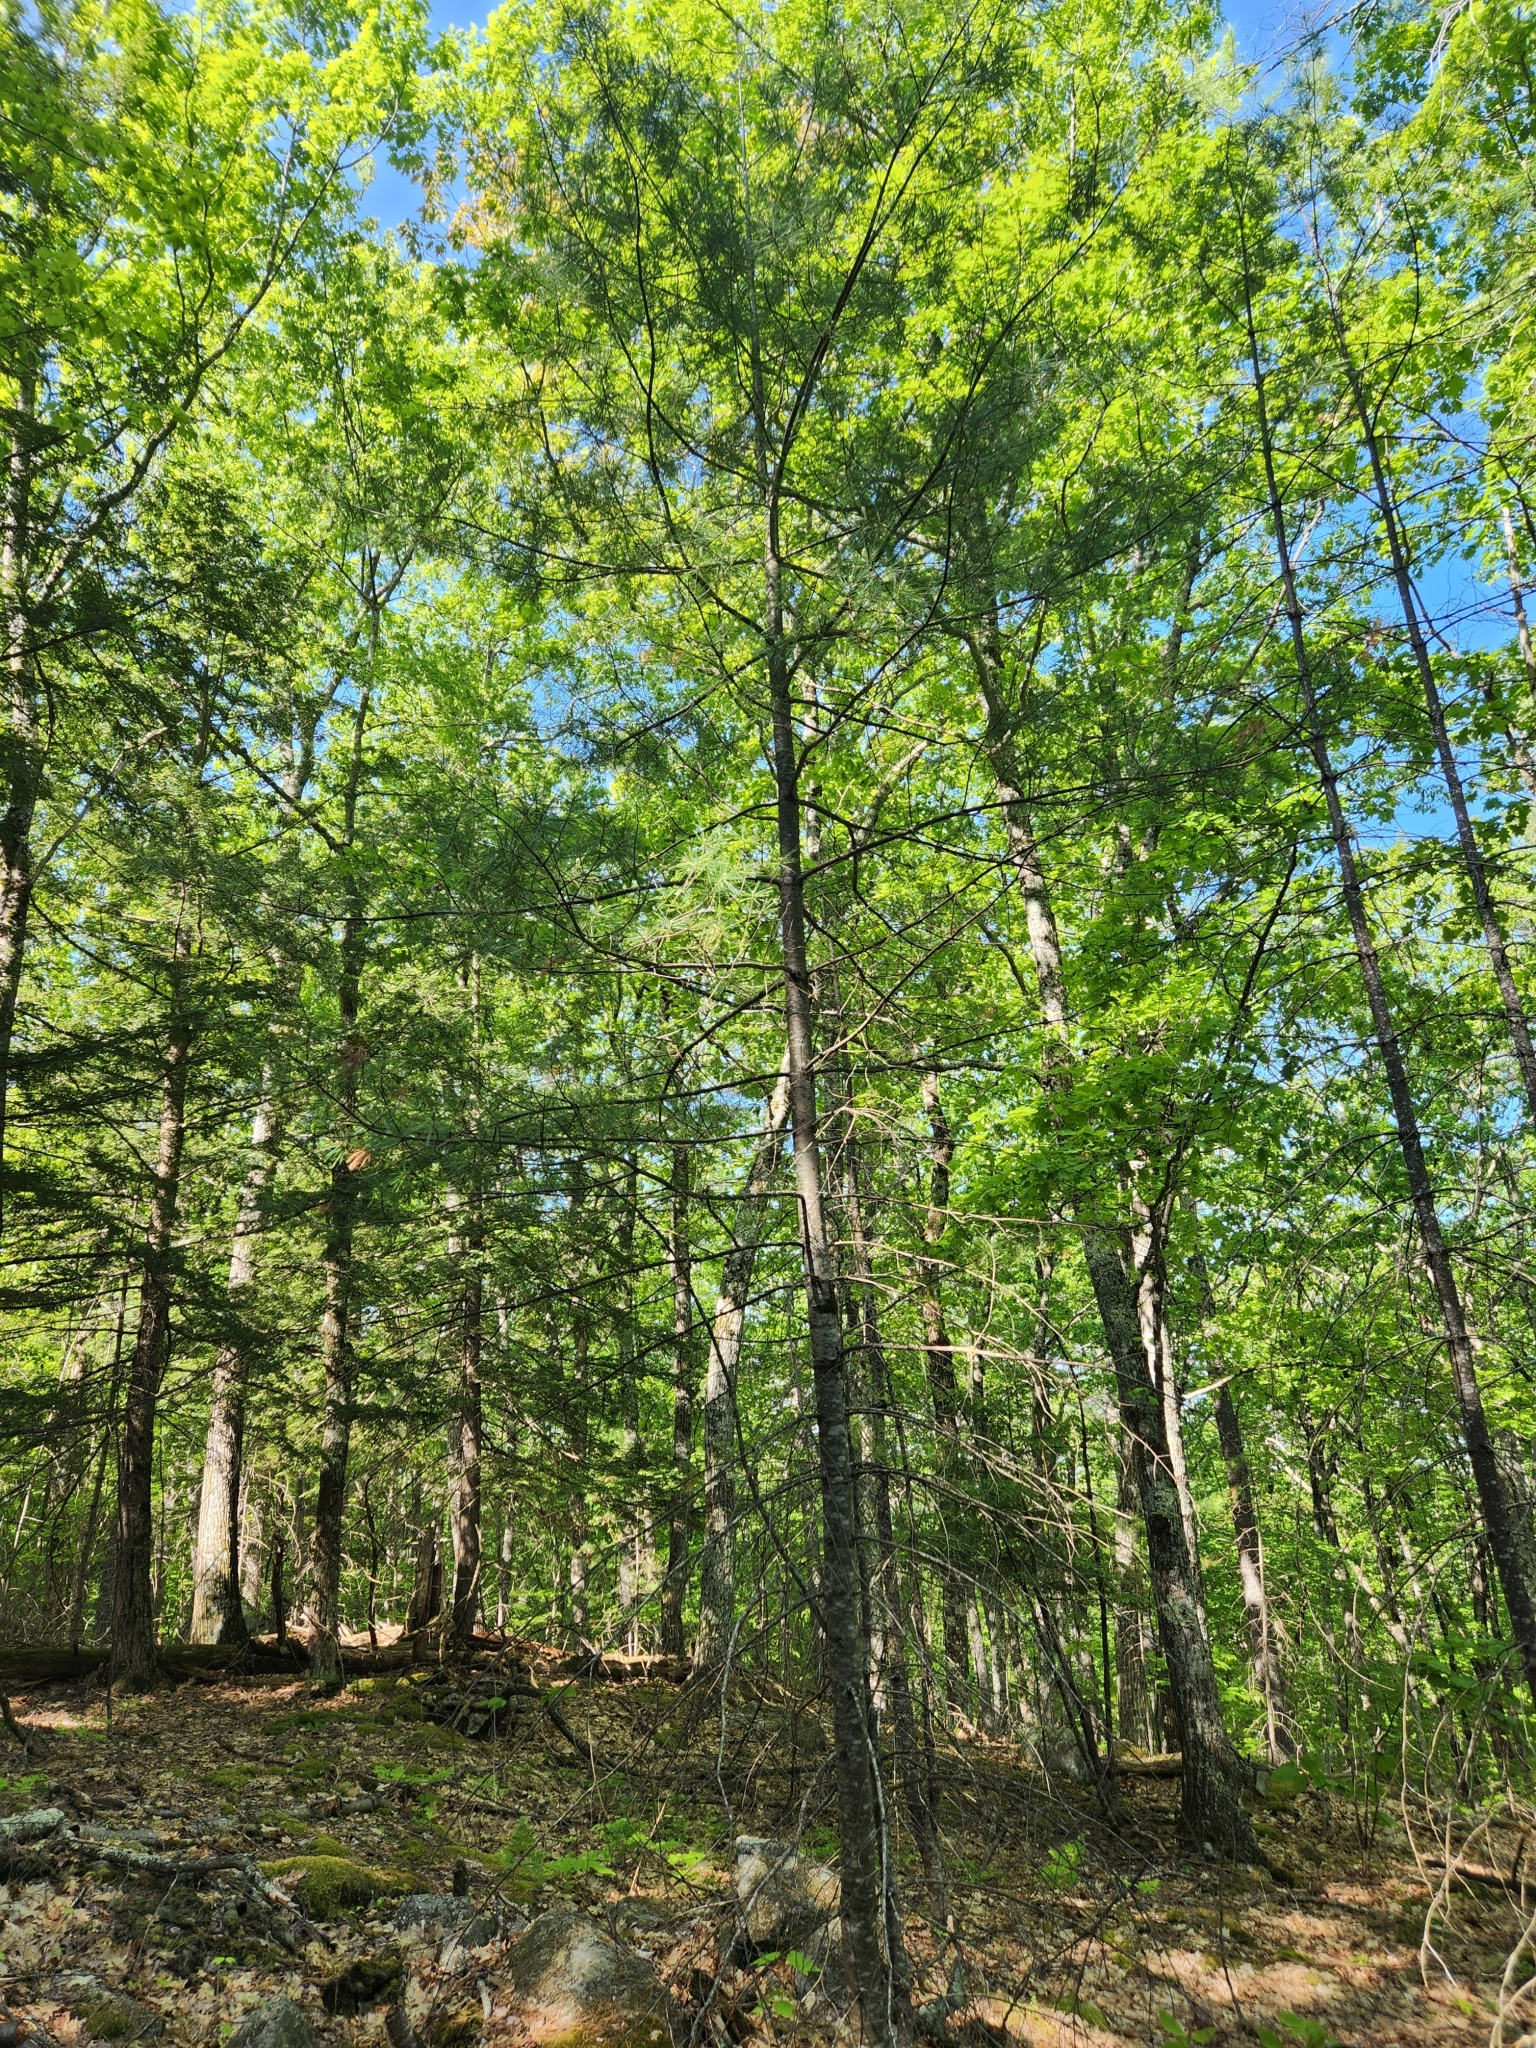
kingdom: Plantae
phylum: Tracheophyta
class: Pinopsida
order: Pinales
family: Pinaceae
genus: Pinus
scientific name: Pinus strobus
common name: Weymouth pine
